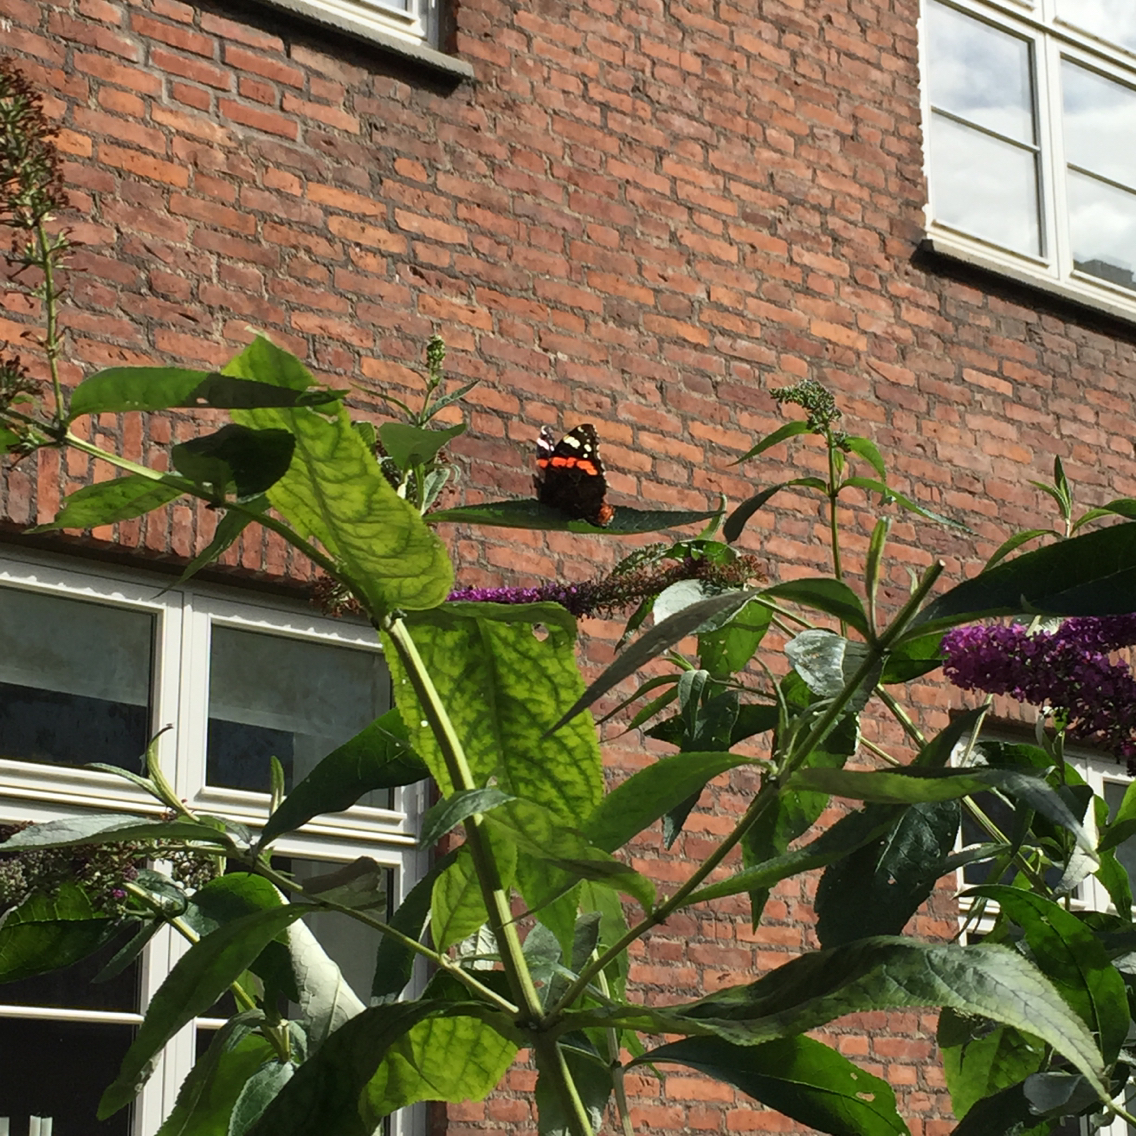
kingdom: Animalia
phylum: Arthropoda
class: Insecta
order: Lepidoptera
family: Nymphalidae
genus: Vanessa
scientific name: Vanessa atalanta
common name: Red admiral
